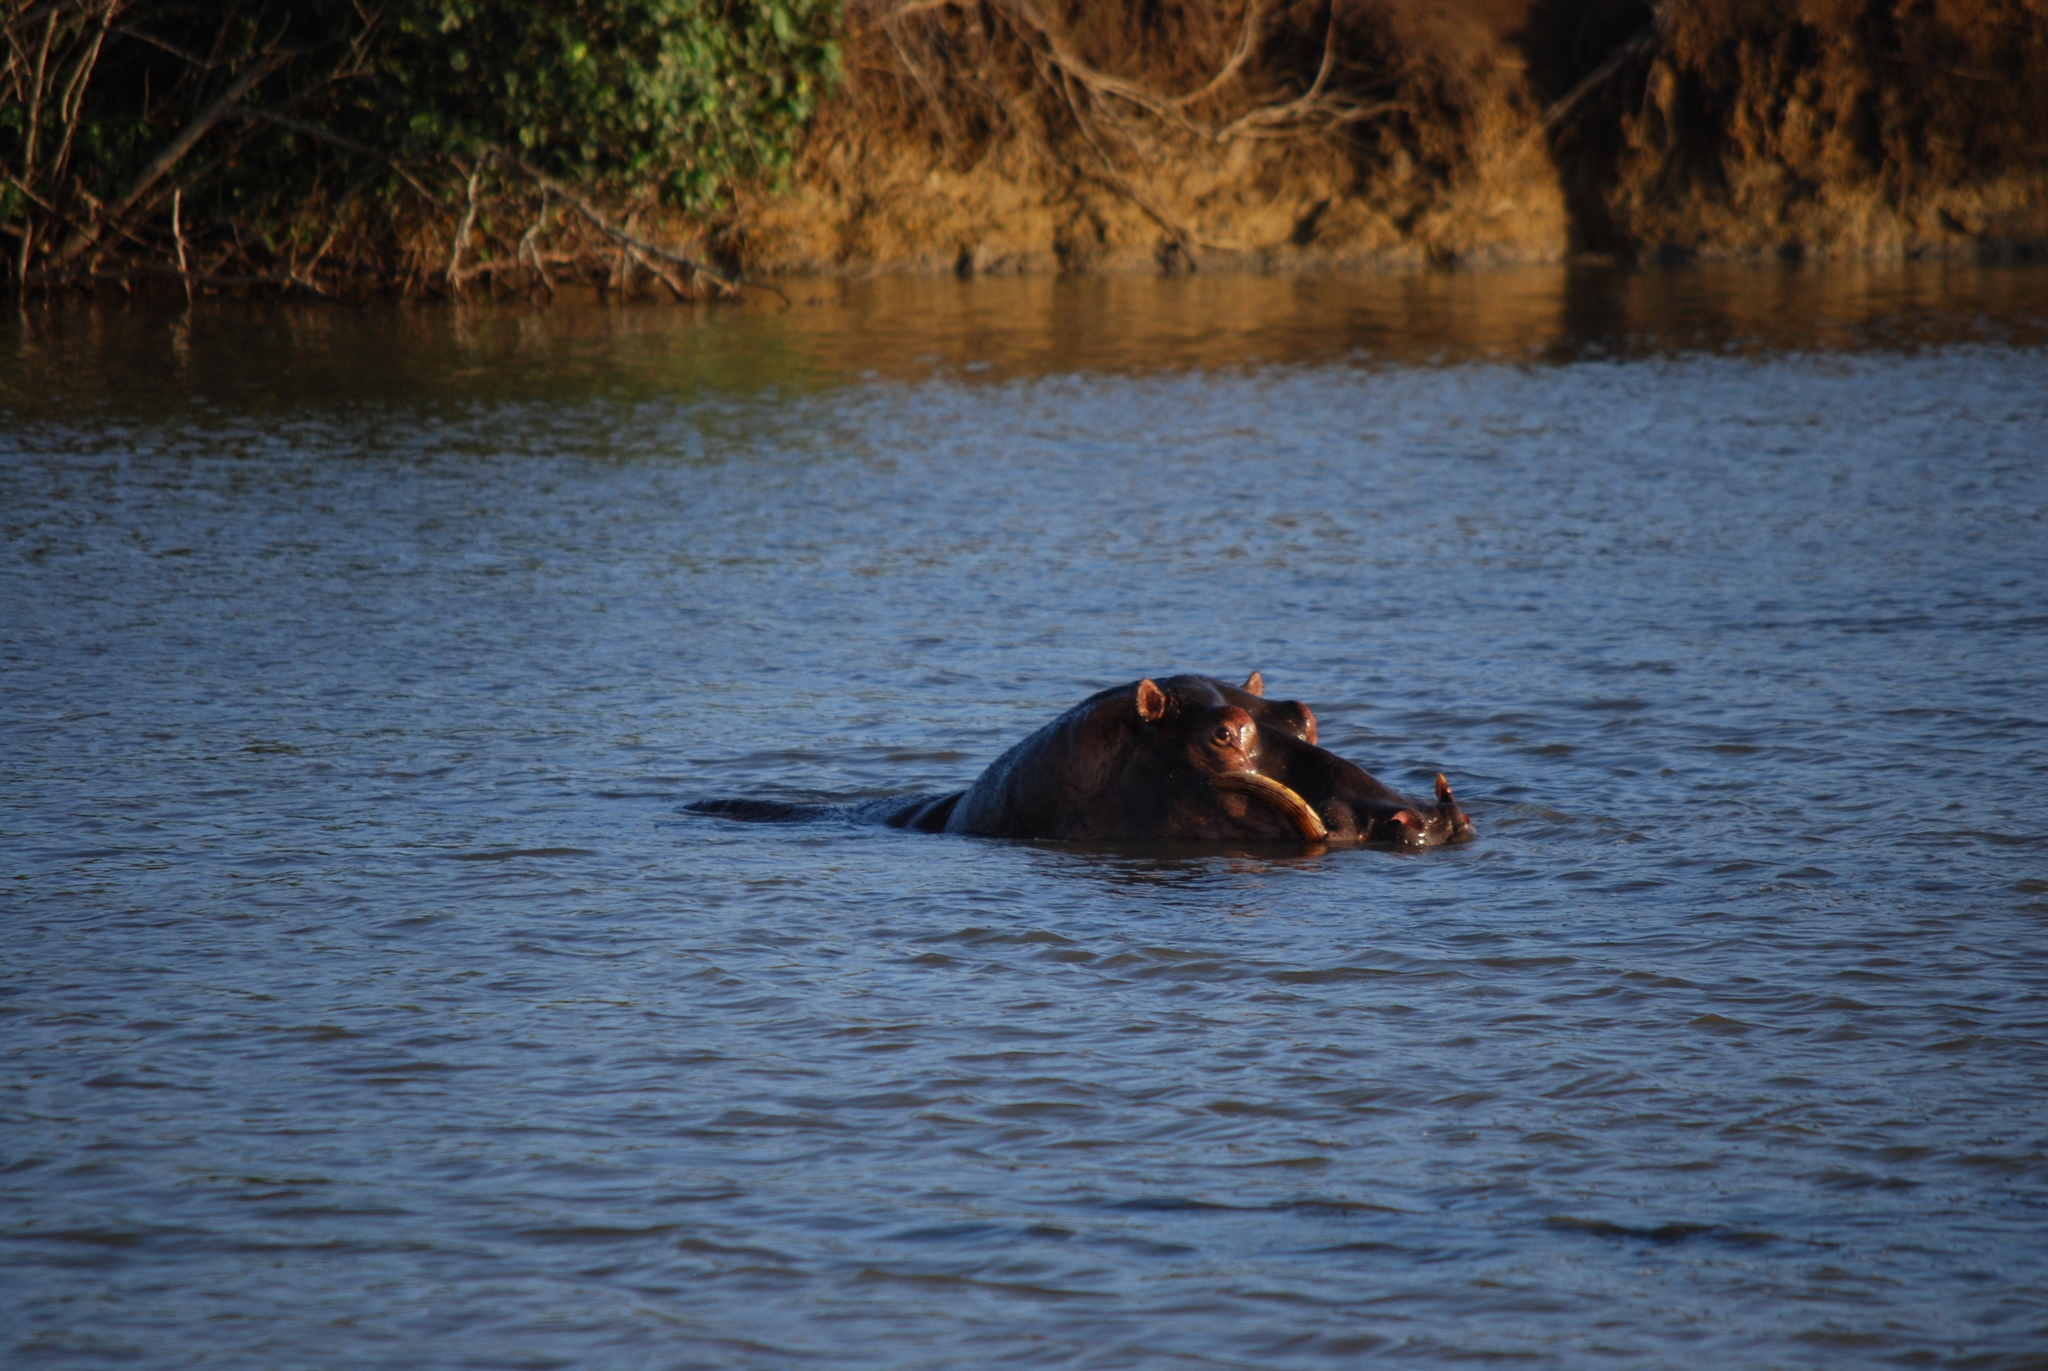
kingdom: Animalia
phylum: Chordata
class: Mammalia
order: Artiodactyla
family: Hippopotamidae
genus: Hippopotamus
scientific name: Hippopotamus amphibius
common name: Common hippopotamus
